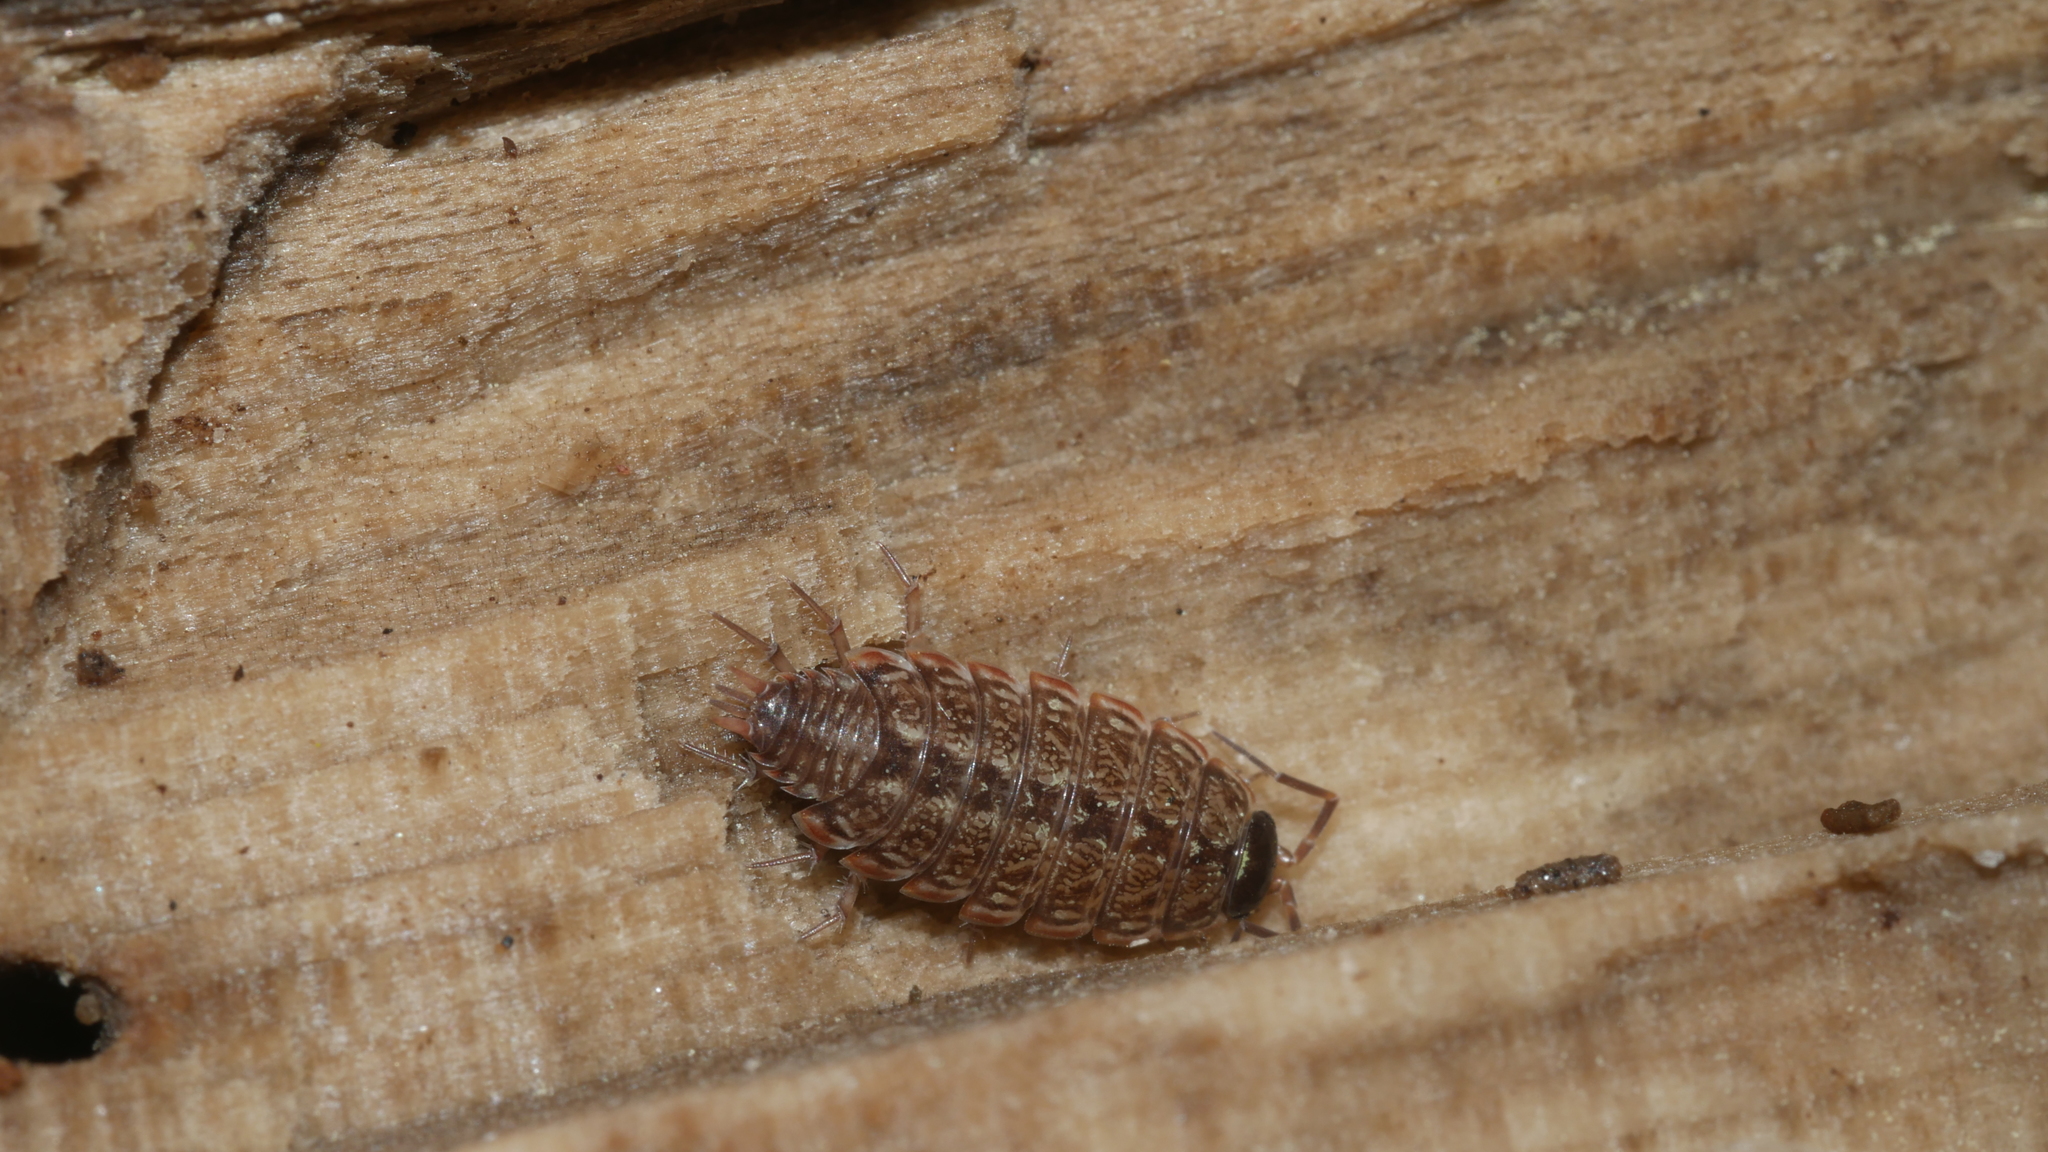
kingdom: Animalia
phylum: Arthropoda
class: Malacostraca
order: Isopoda
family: Philosciidae
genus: Philoscia
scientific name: Philoscia muscorum
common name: Common striped woodlouse
